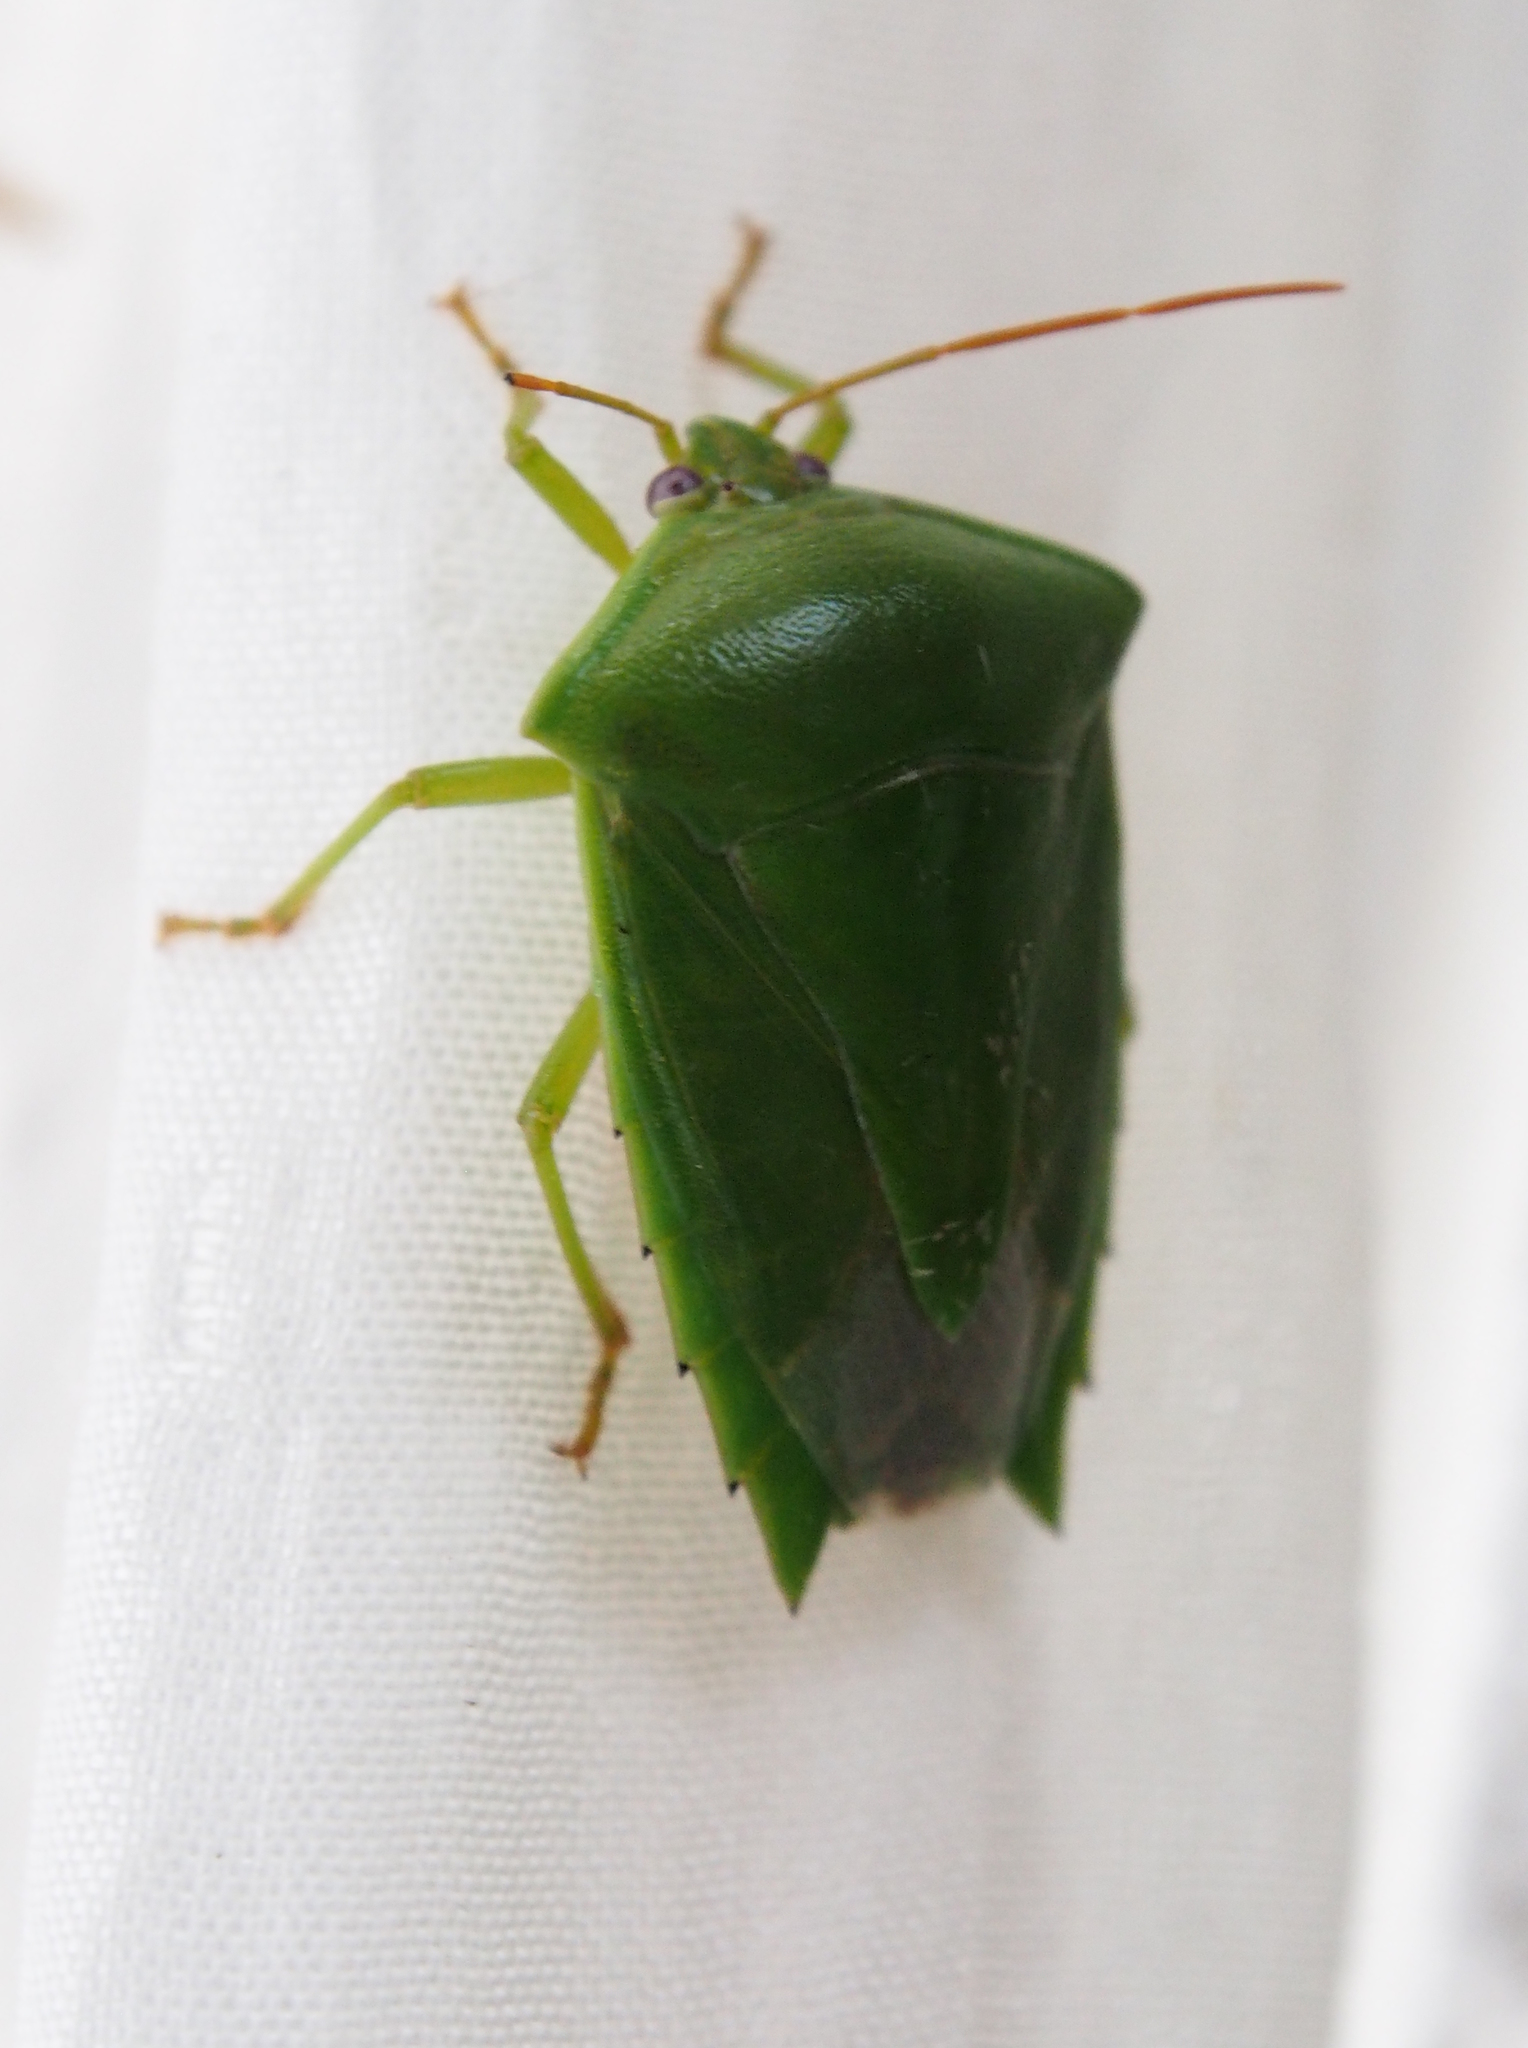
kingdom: Animalia
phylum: Arthropoda
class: Insecta
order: Hemiptera
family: Pentatomidae
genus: Pantochlora
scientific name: Pantochlora vivida
